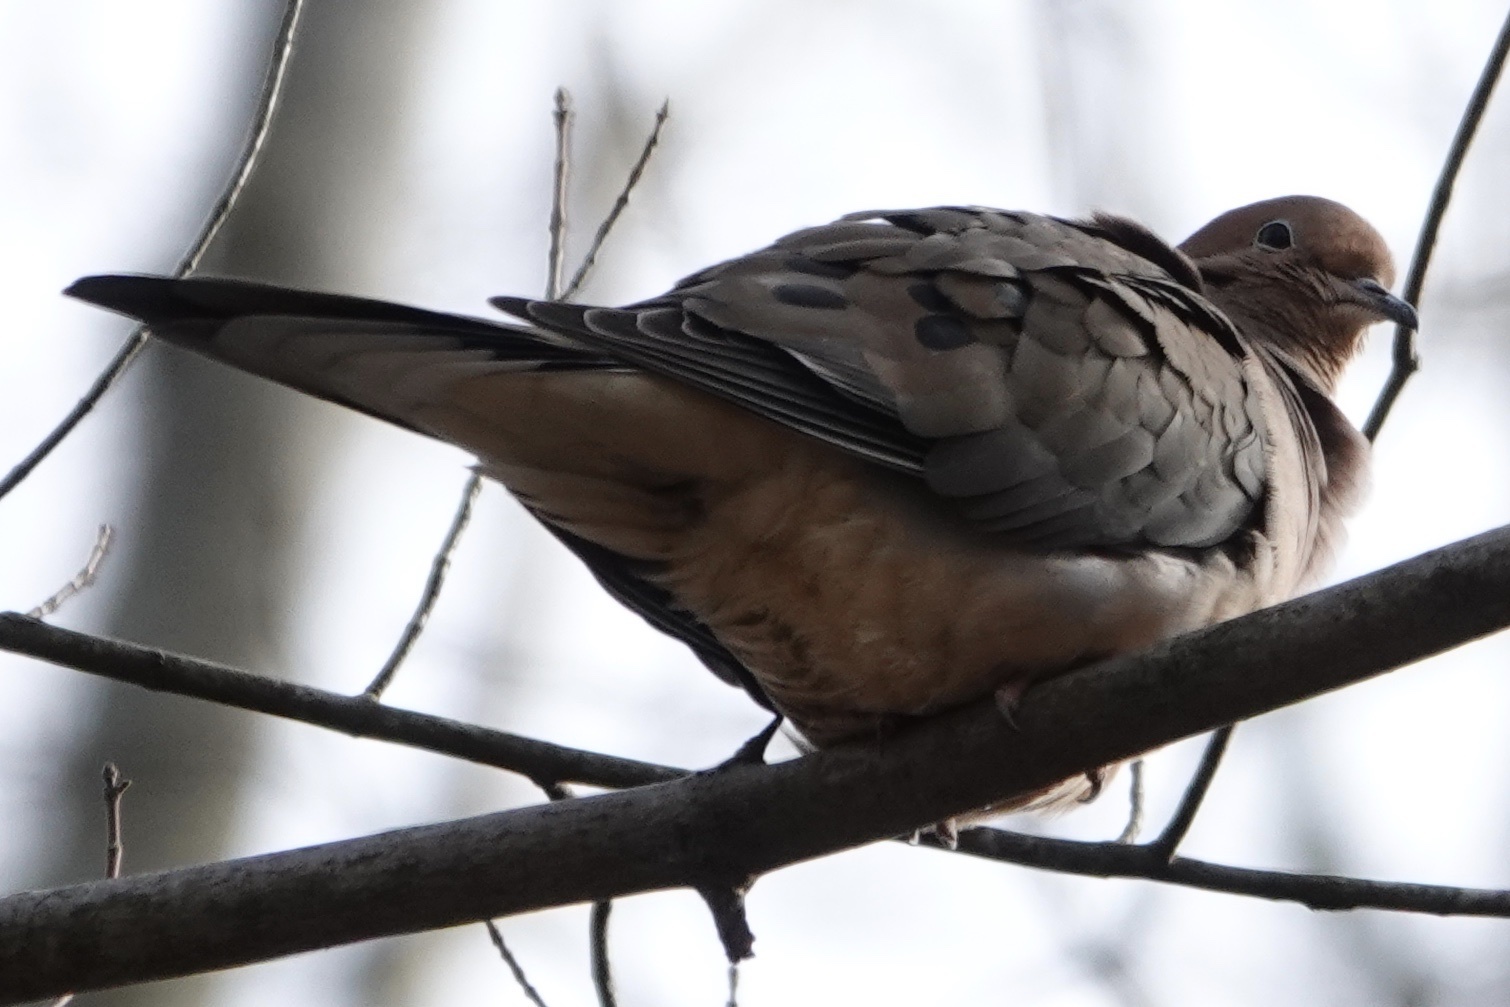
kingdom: Animalia
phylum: Chordata
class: Aves
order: Columbiformes
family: Columbidae
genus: Zenaida
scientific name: Zenaida macroura
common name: Mourning dove
